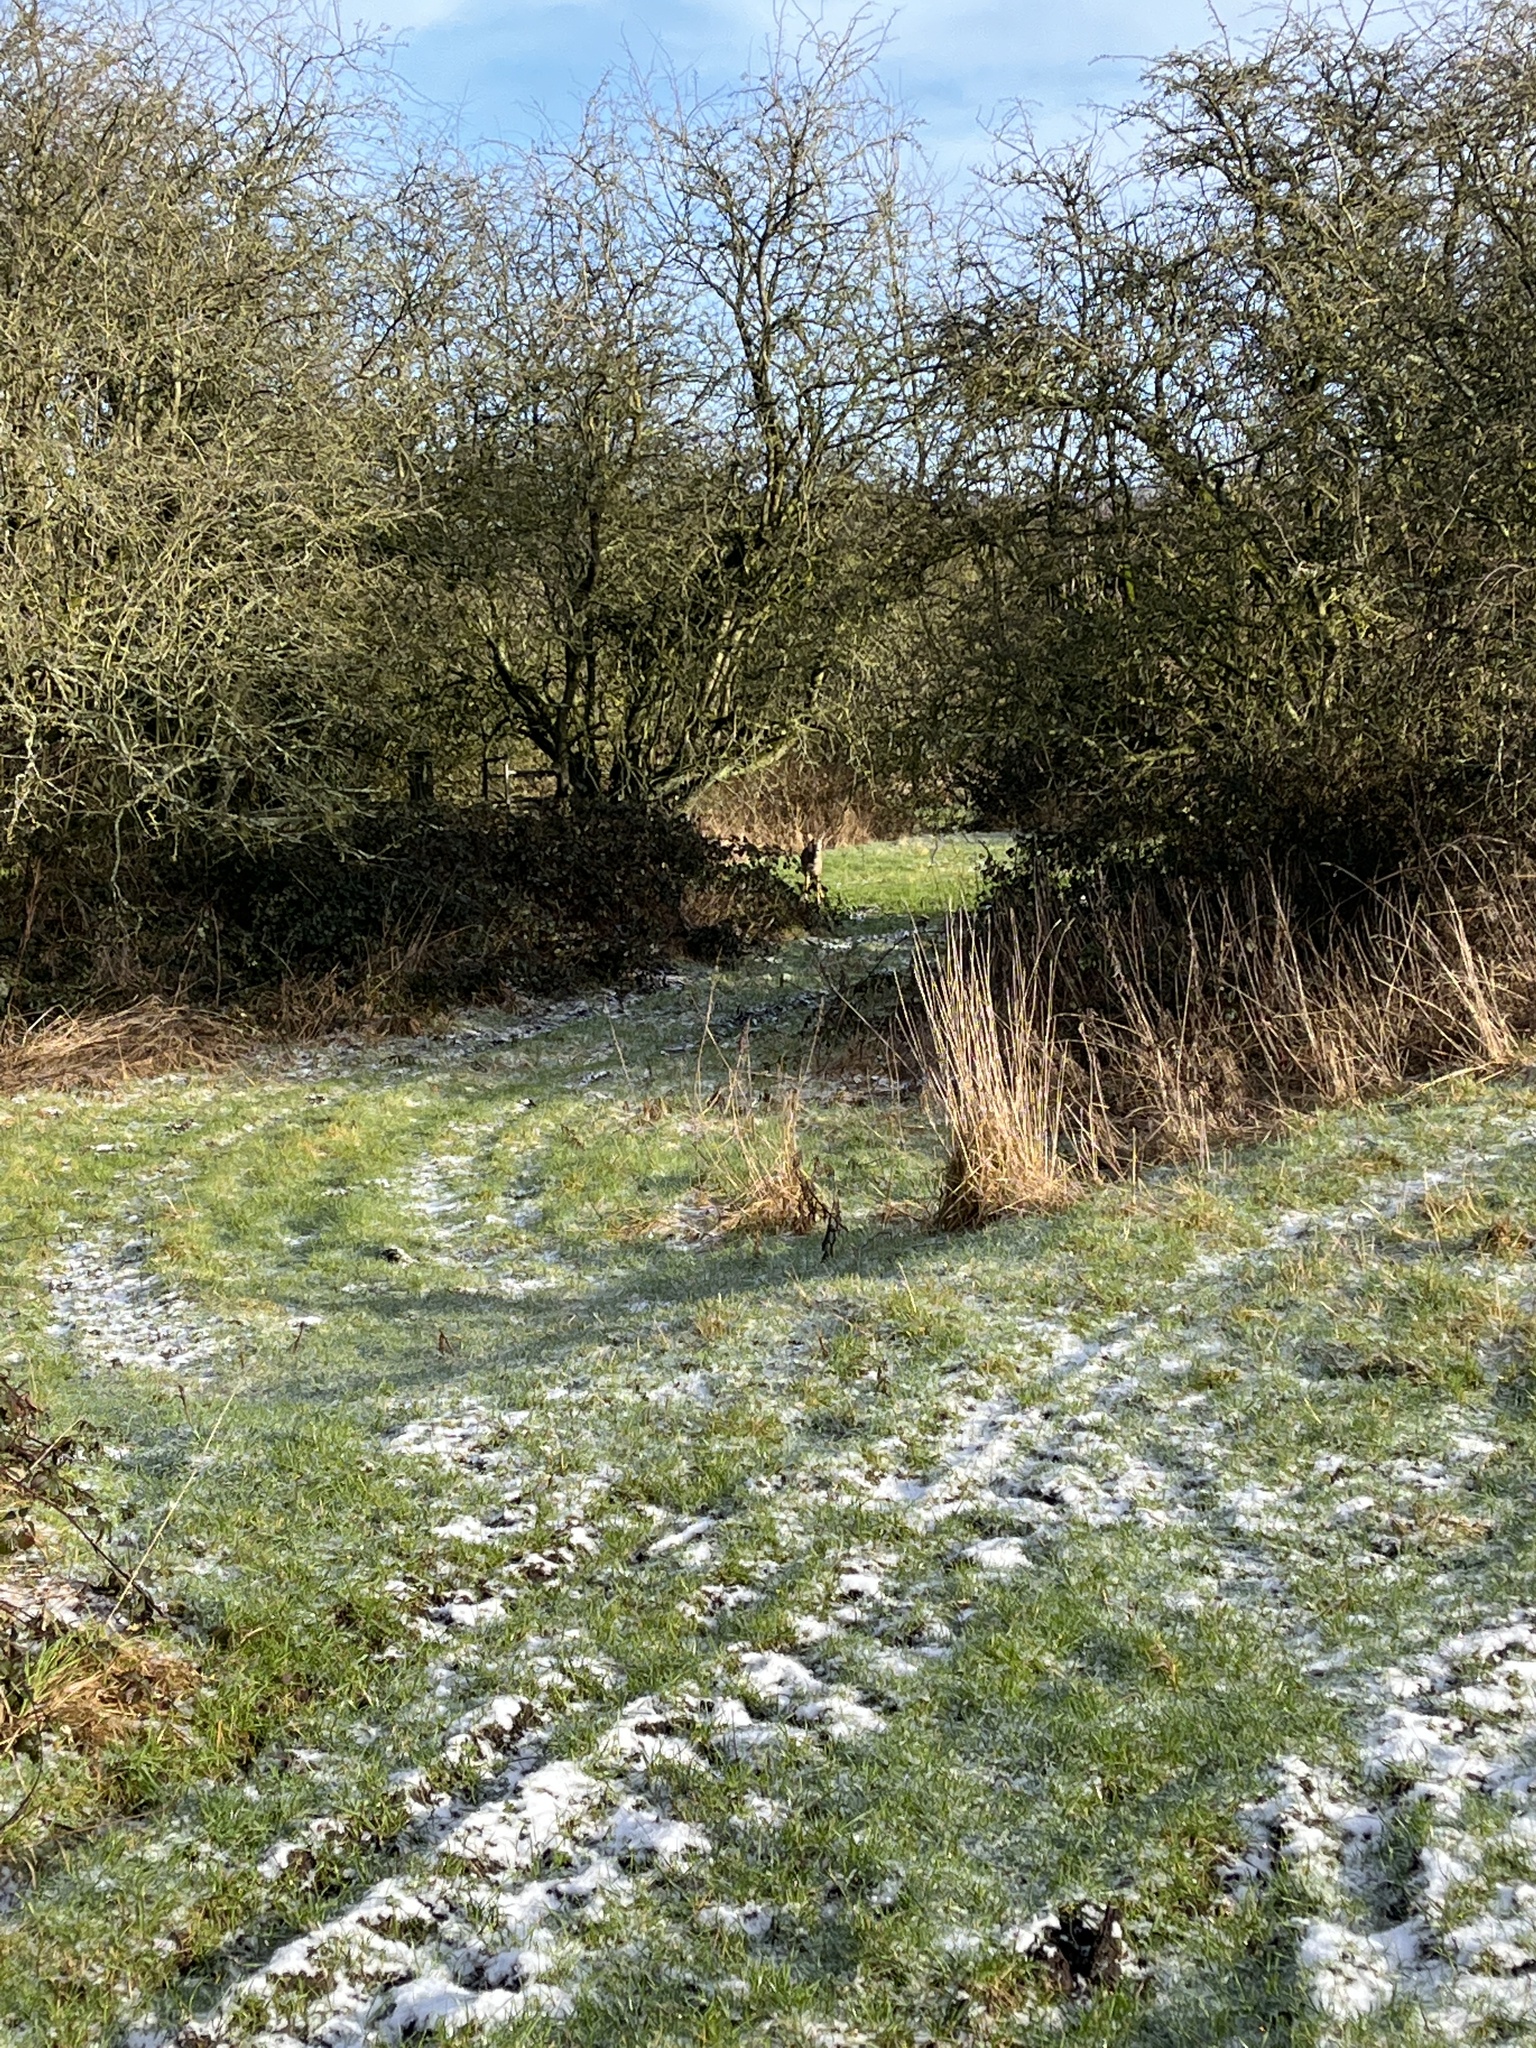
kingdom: Animalia
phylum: Chordata
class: Mammalia
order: Artiodactyla
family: Cervidae
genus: Capreolus
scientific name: Capreolus capreolus
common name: Western roe deer
